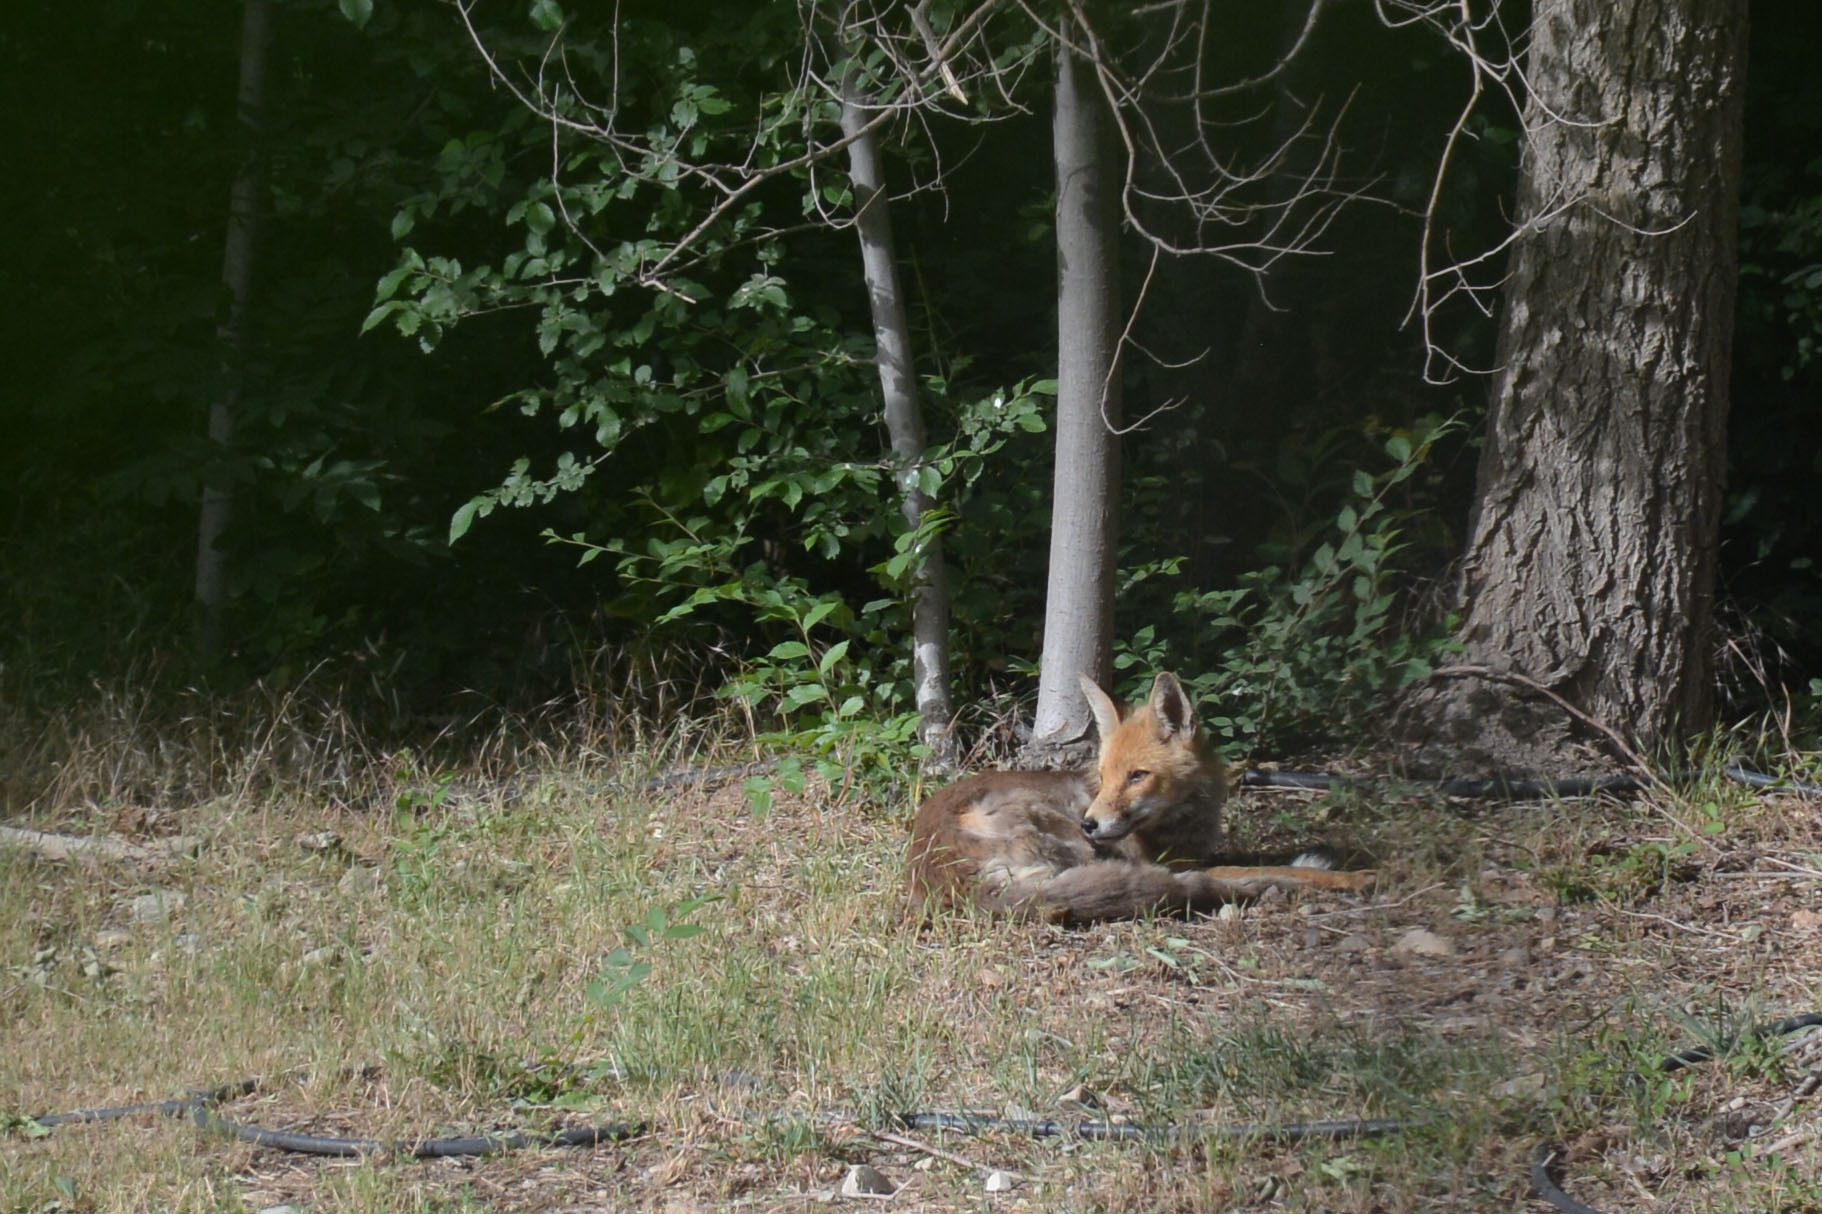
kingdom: Animalia
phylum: Chordata
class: Mammalia
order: Carnivora
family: Canidae
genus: Vulpes
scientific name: Vulpes vulpes
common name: Red fox
